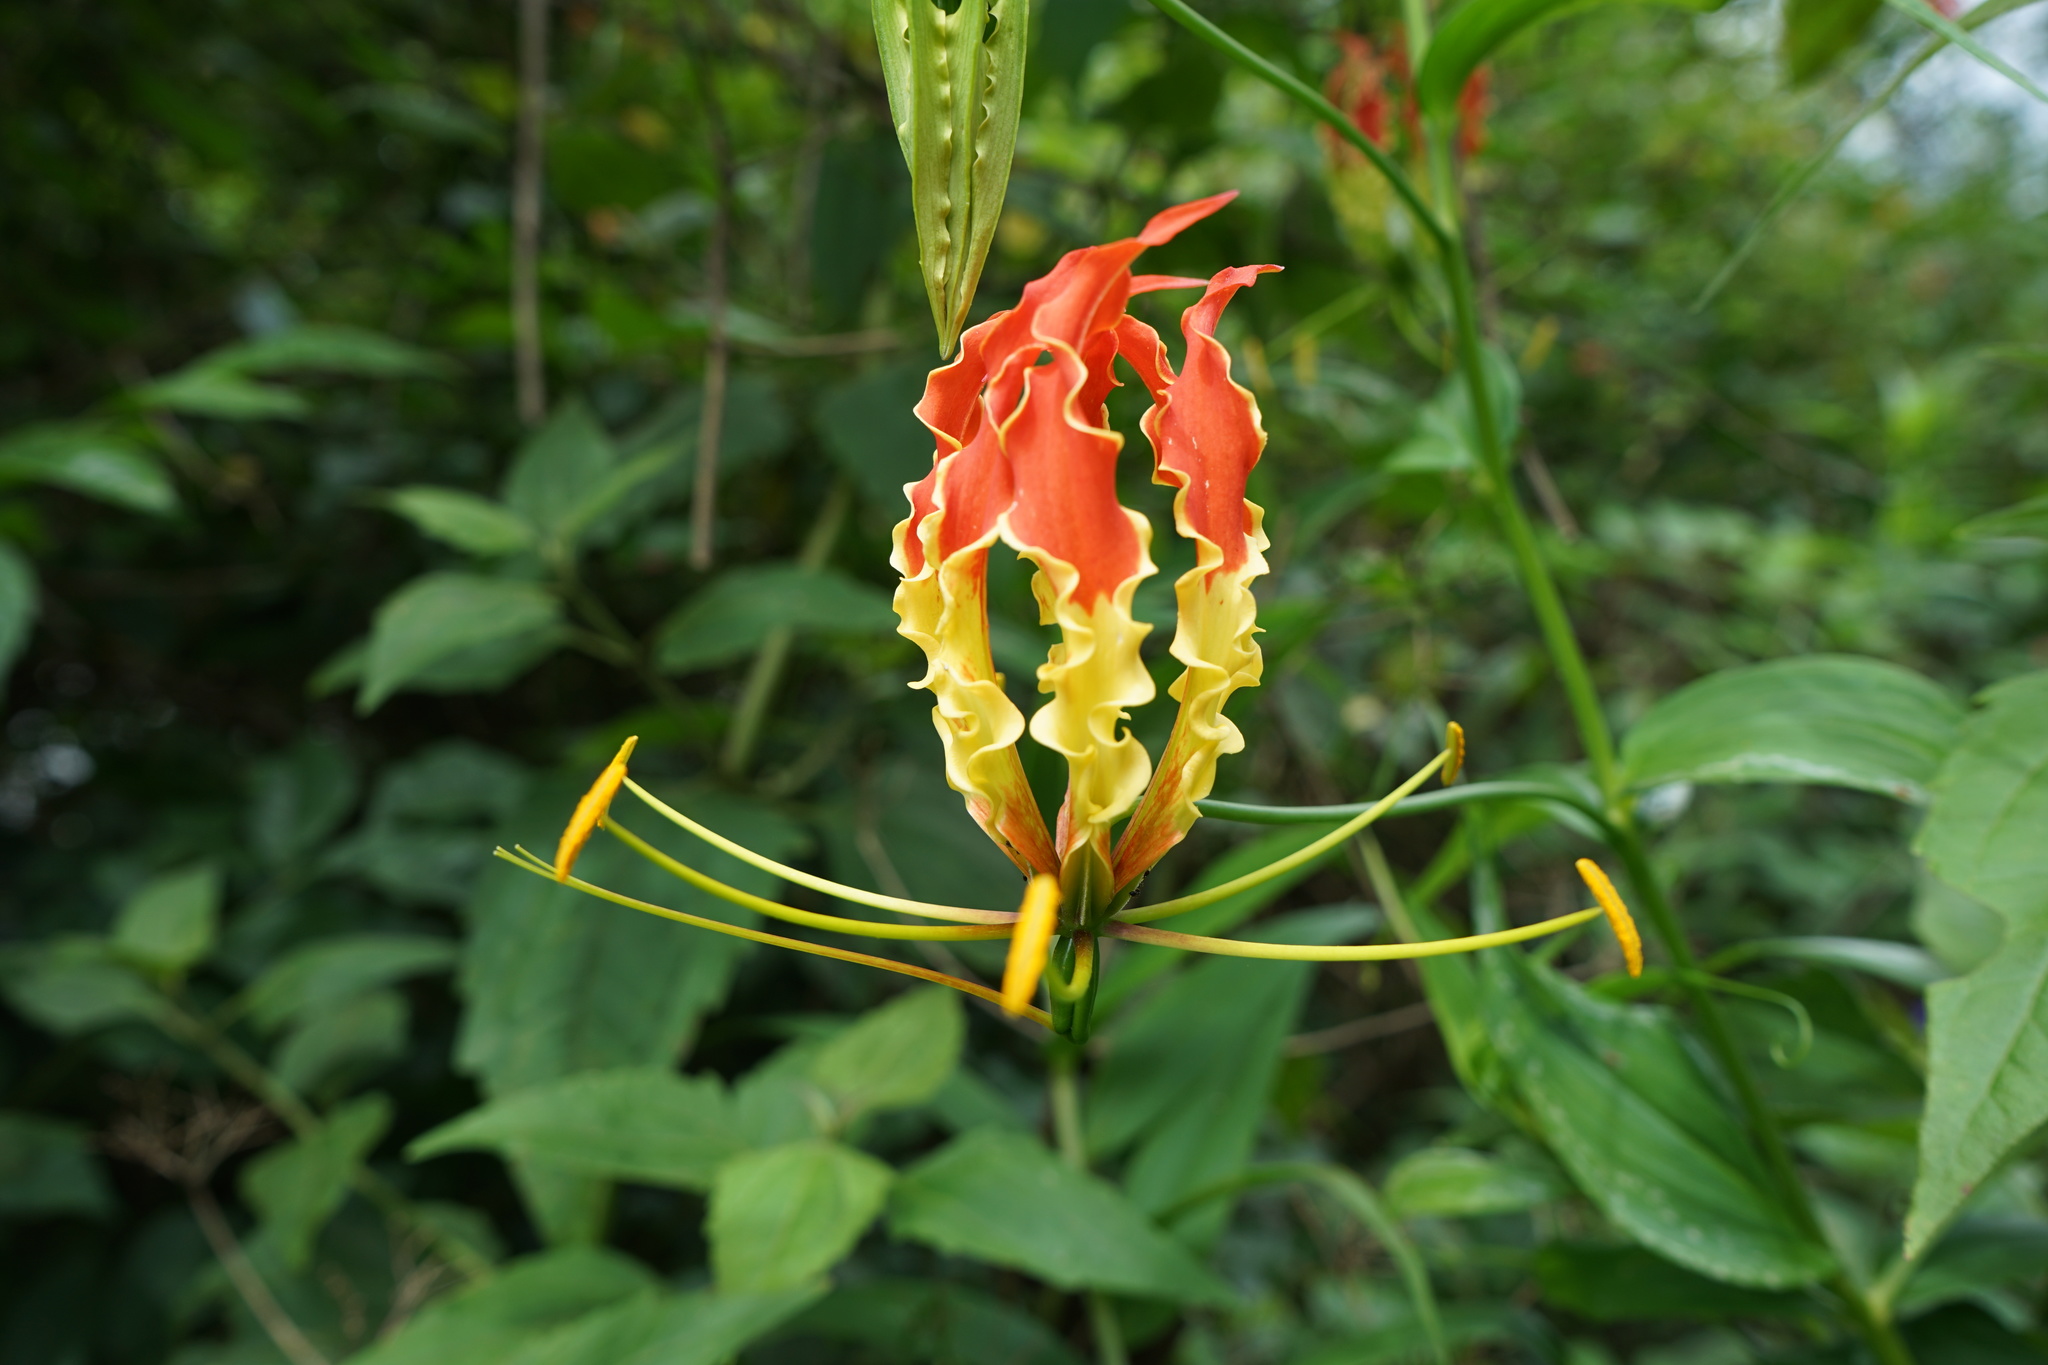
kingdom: Plantae
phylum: Tracheophyta
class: Liliopsida
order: Liliales
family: Colchicaceae
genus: Gloriosa
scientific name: Gloriosa superba
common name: Flame lily
